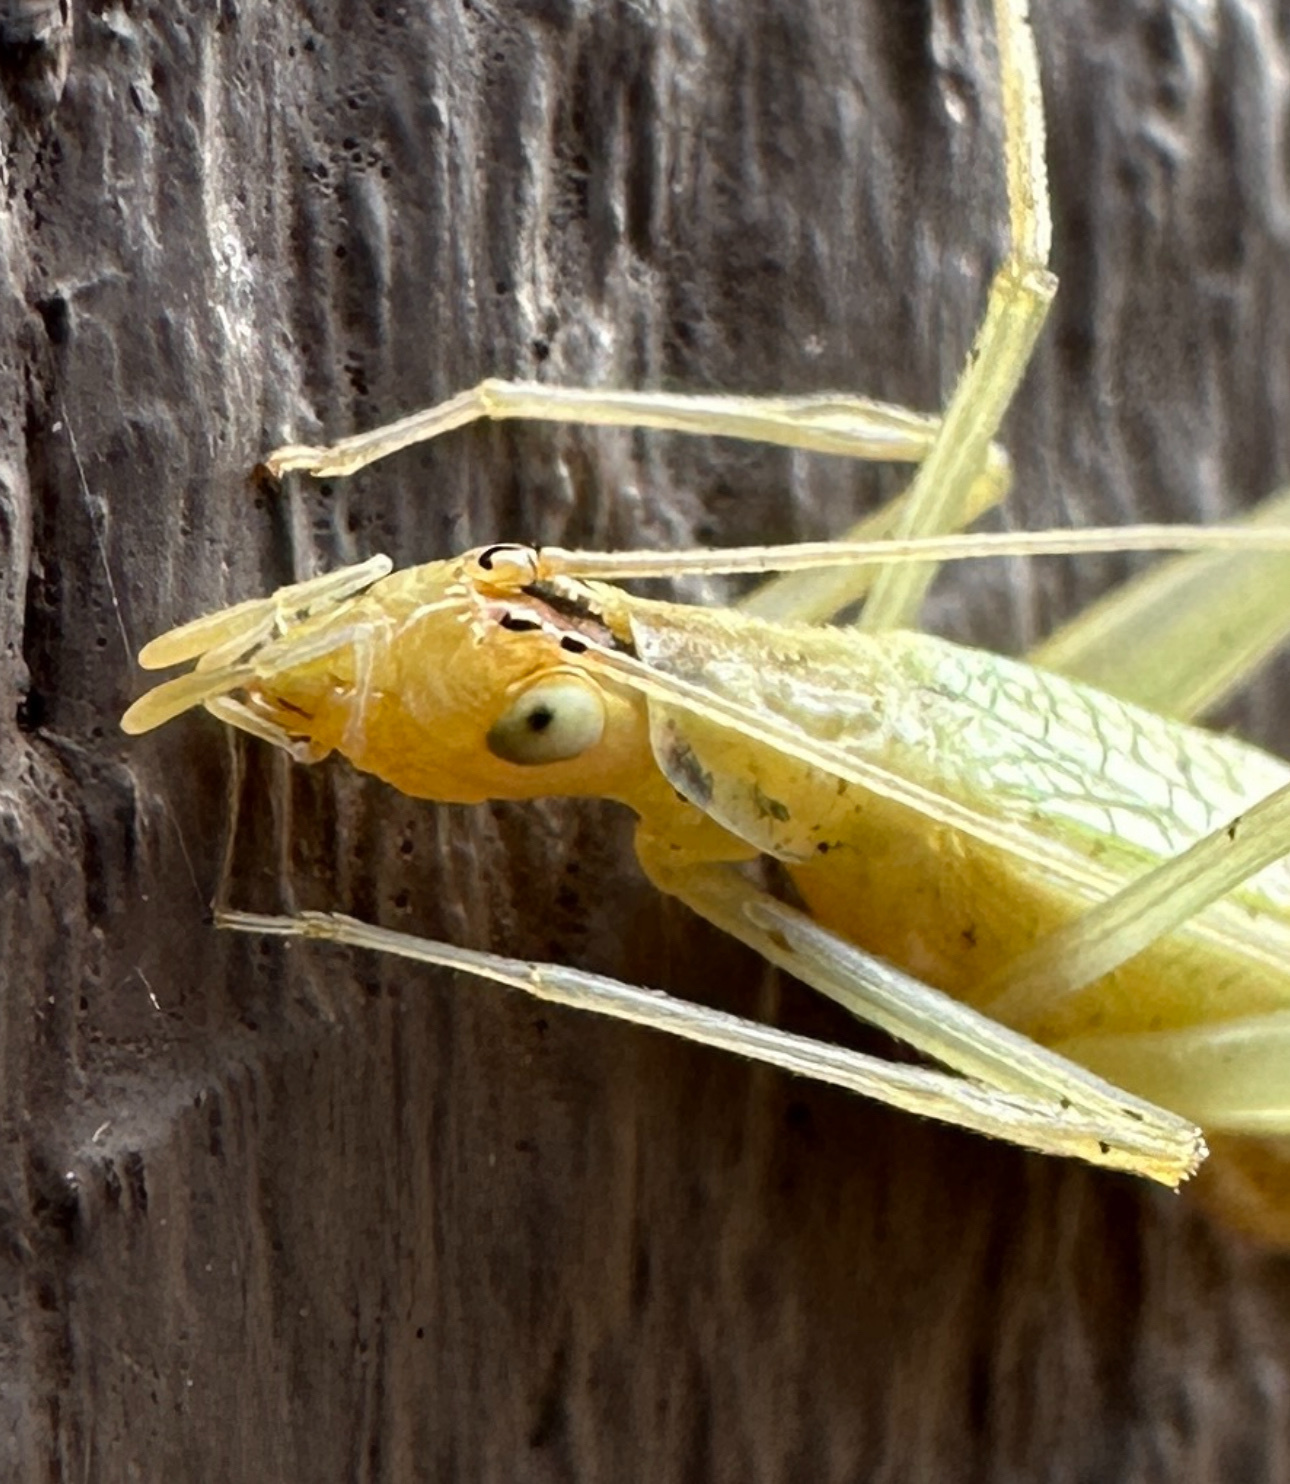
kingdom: Animalia
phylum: Arthropoda
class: Insecta
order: Orthoptera
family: Gryllidae
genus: Oecanthus
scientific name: Oecanthus niveus
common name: Narrow-winged tree cricket
